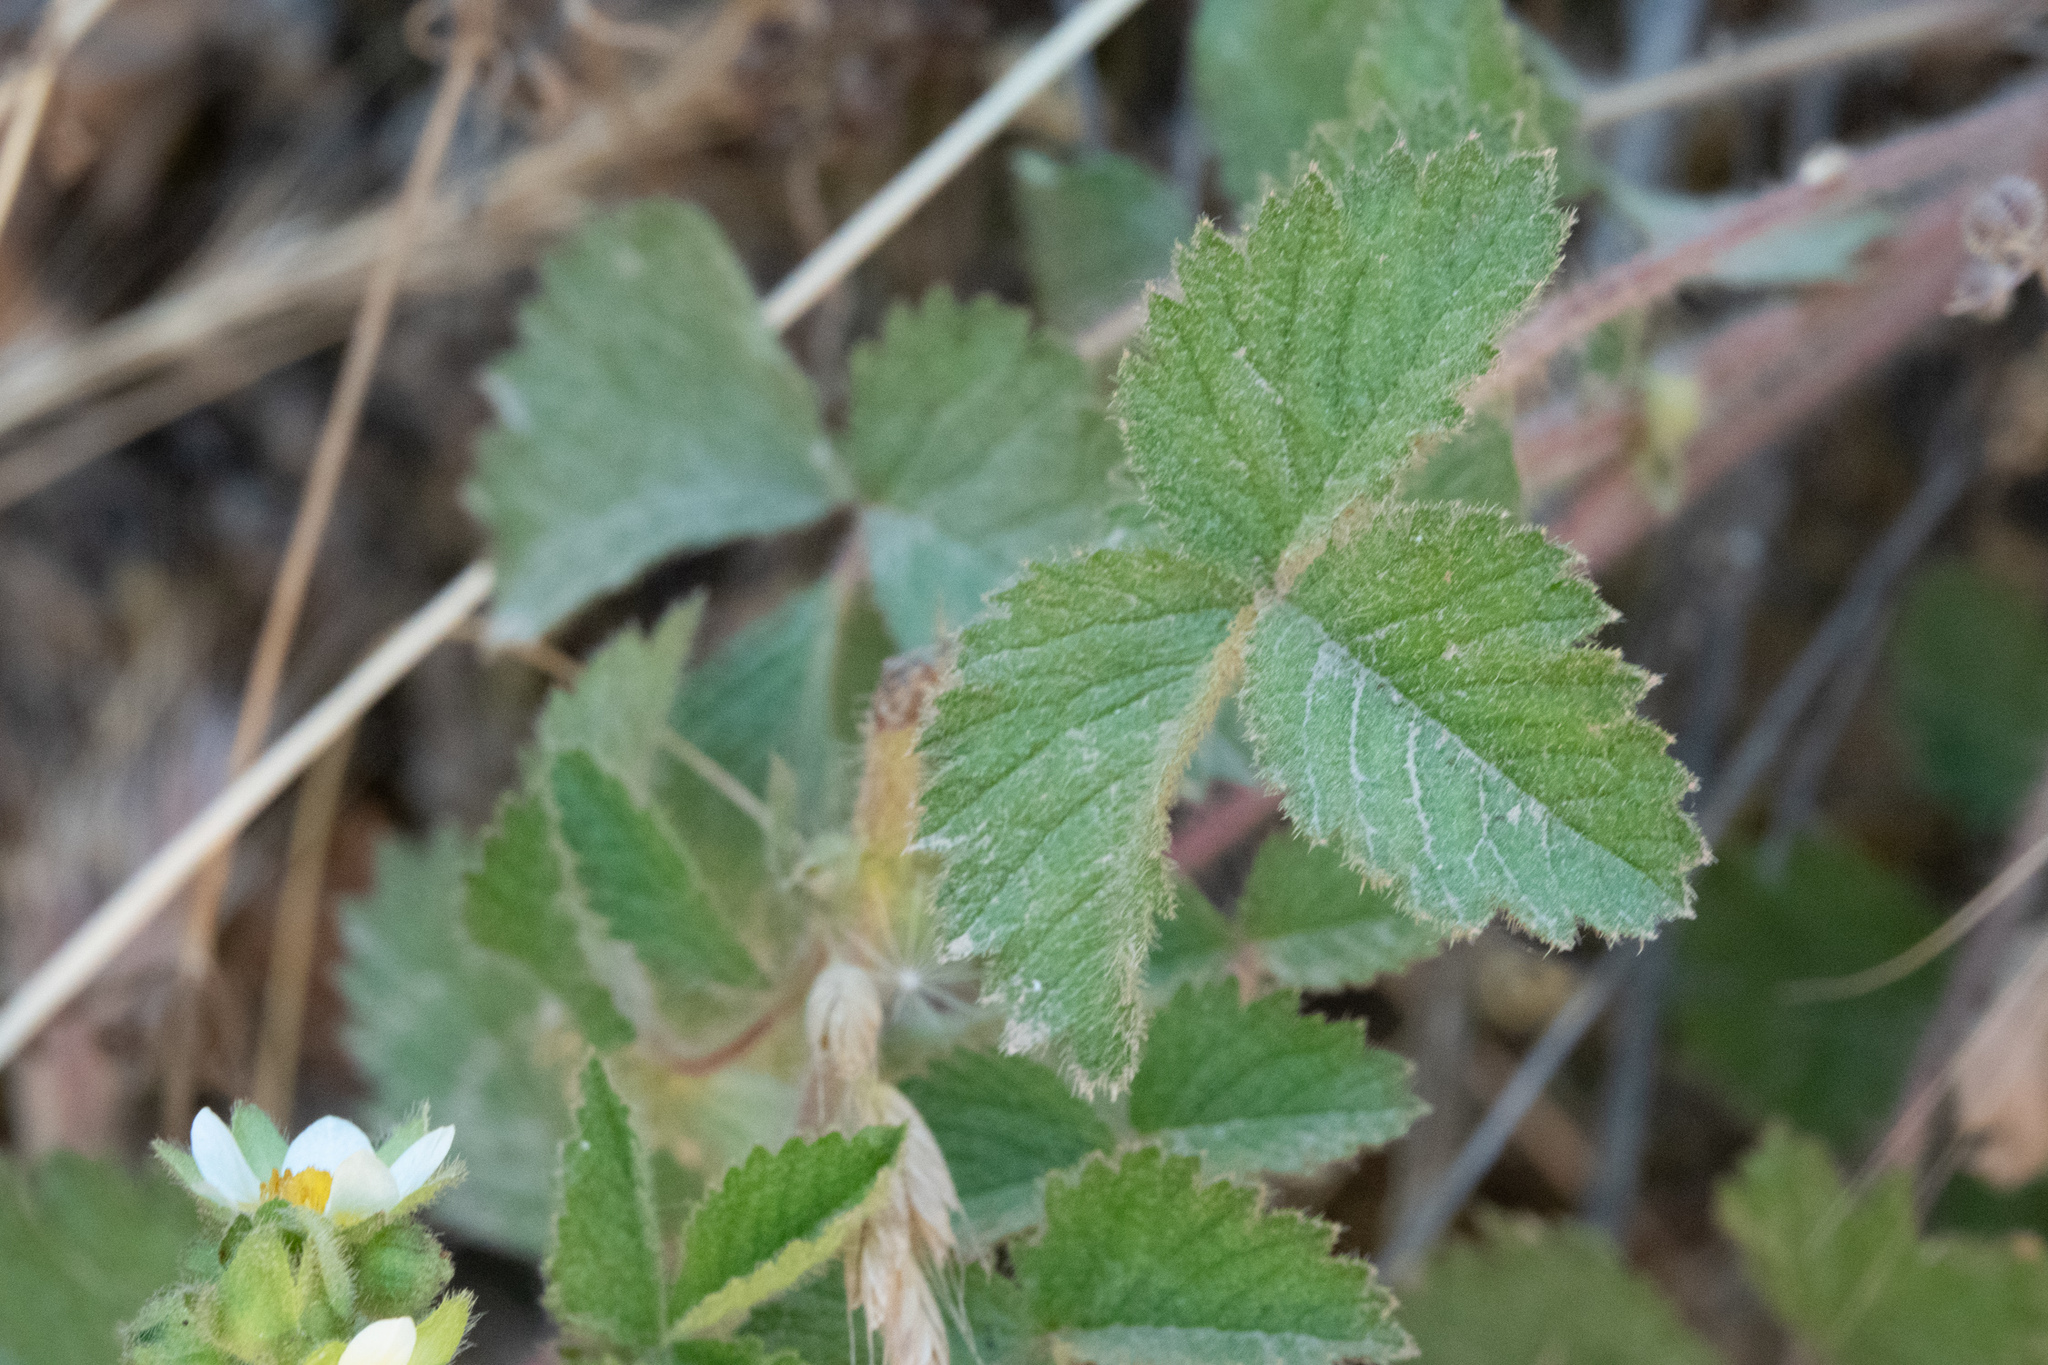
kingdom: Plantae
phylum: Tracheophyta
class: Magnoliopsida
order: Rosales
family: Rosaceae
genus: Drymocallis
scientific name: Drymocallis glandulosa
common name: Sticky cinquefoil
